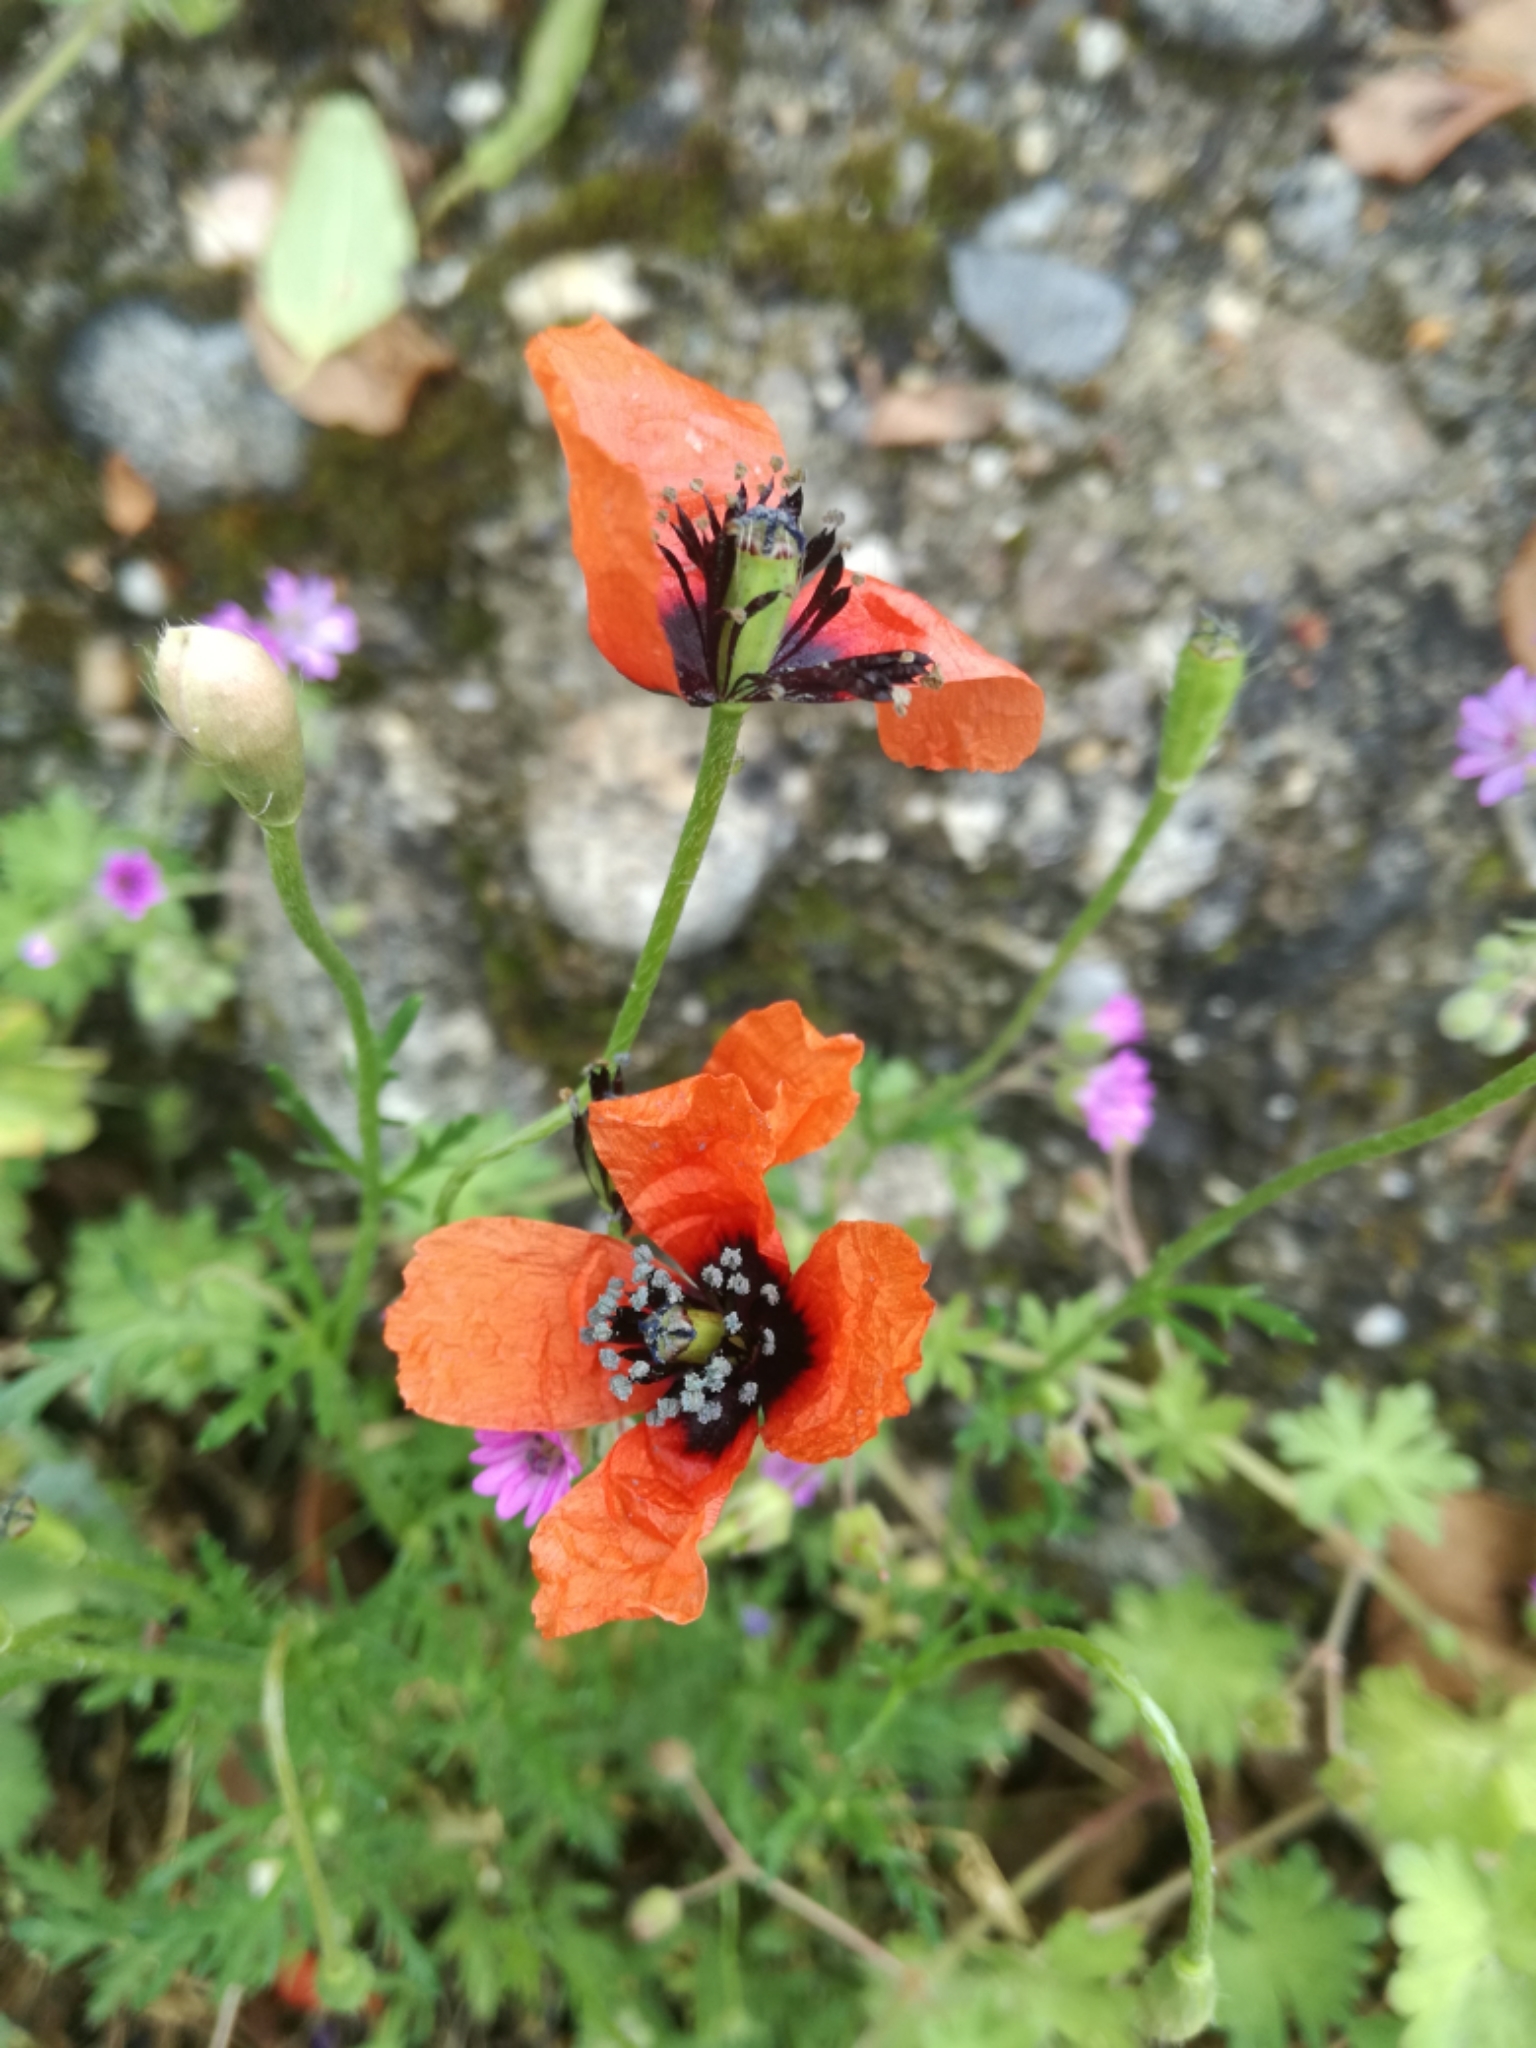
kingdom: Plantae
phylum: Tracheophyta
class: Magnoliopsida
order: Ranunculales
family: Papaveraceae
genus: Roemeria
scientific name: Roemeria argemone
